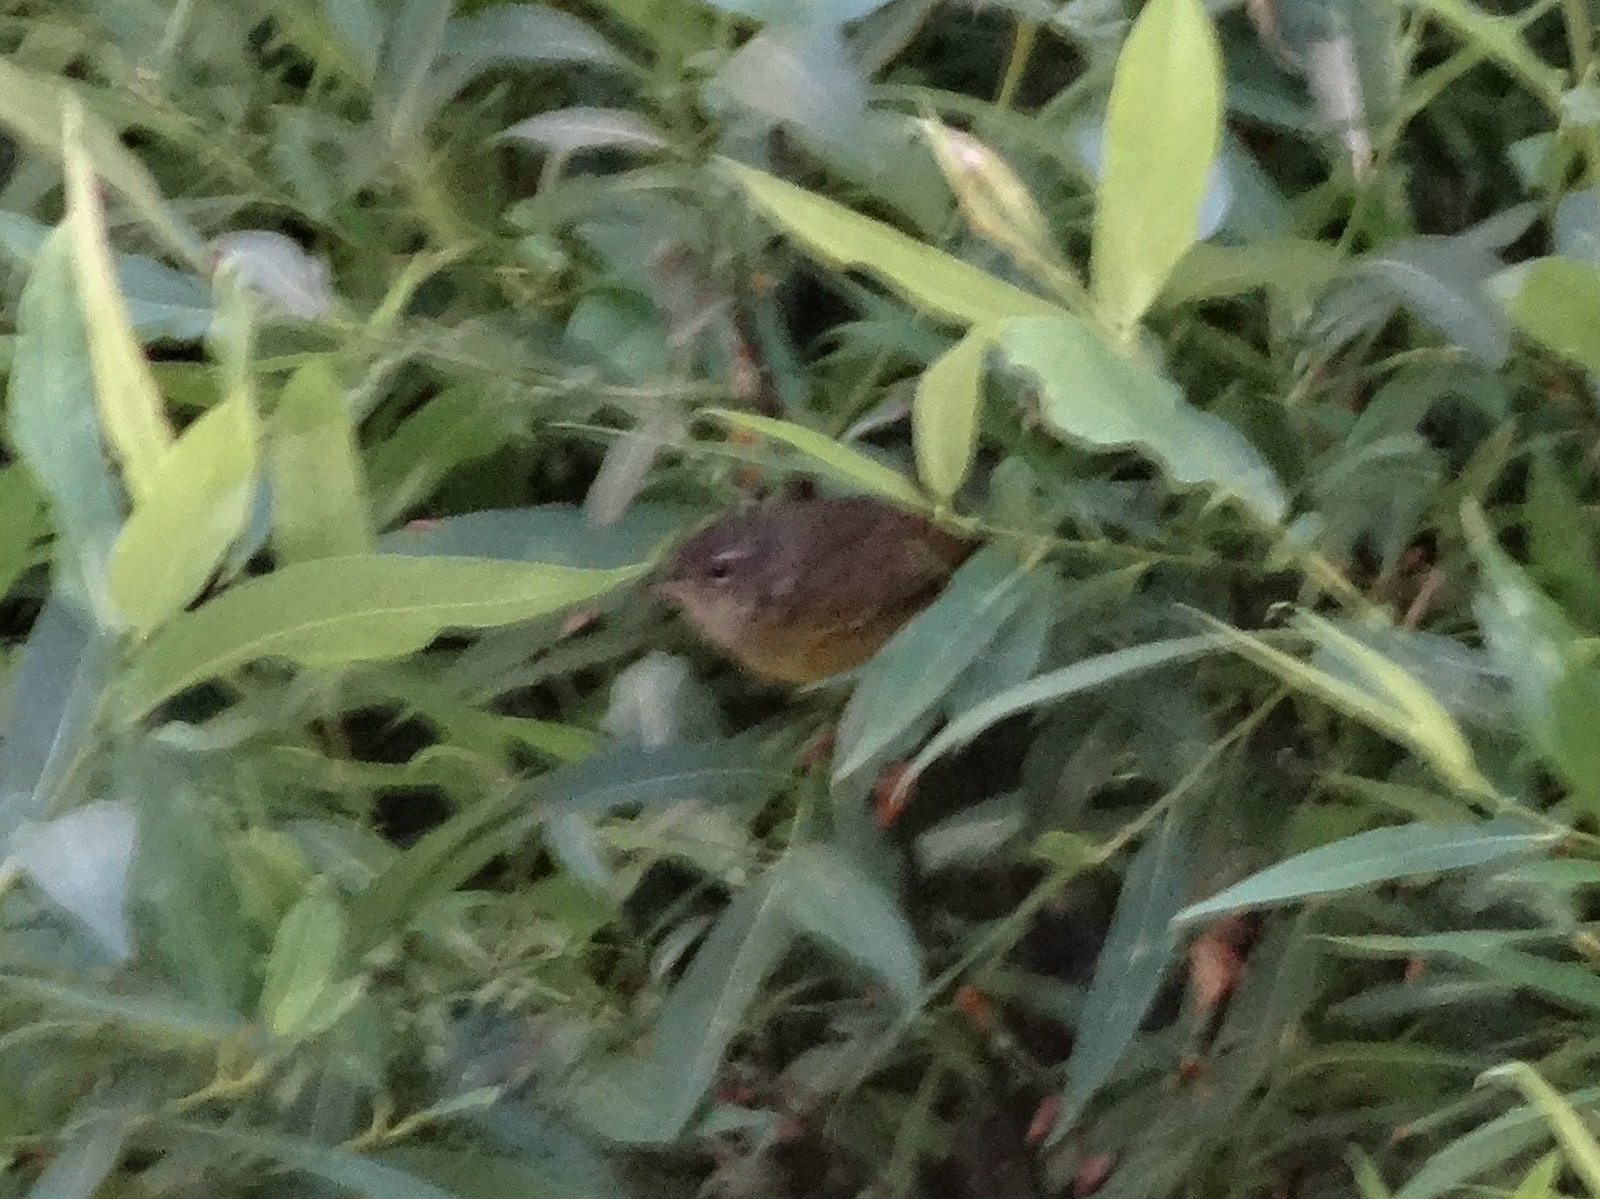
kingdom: Animalia
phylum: Chordata
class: Aves
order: Passeriformes
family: Parulidae
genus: Geothlypis
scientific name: Geothlypis tolmiei
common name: Macgillivray's warbler
